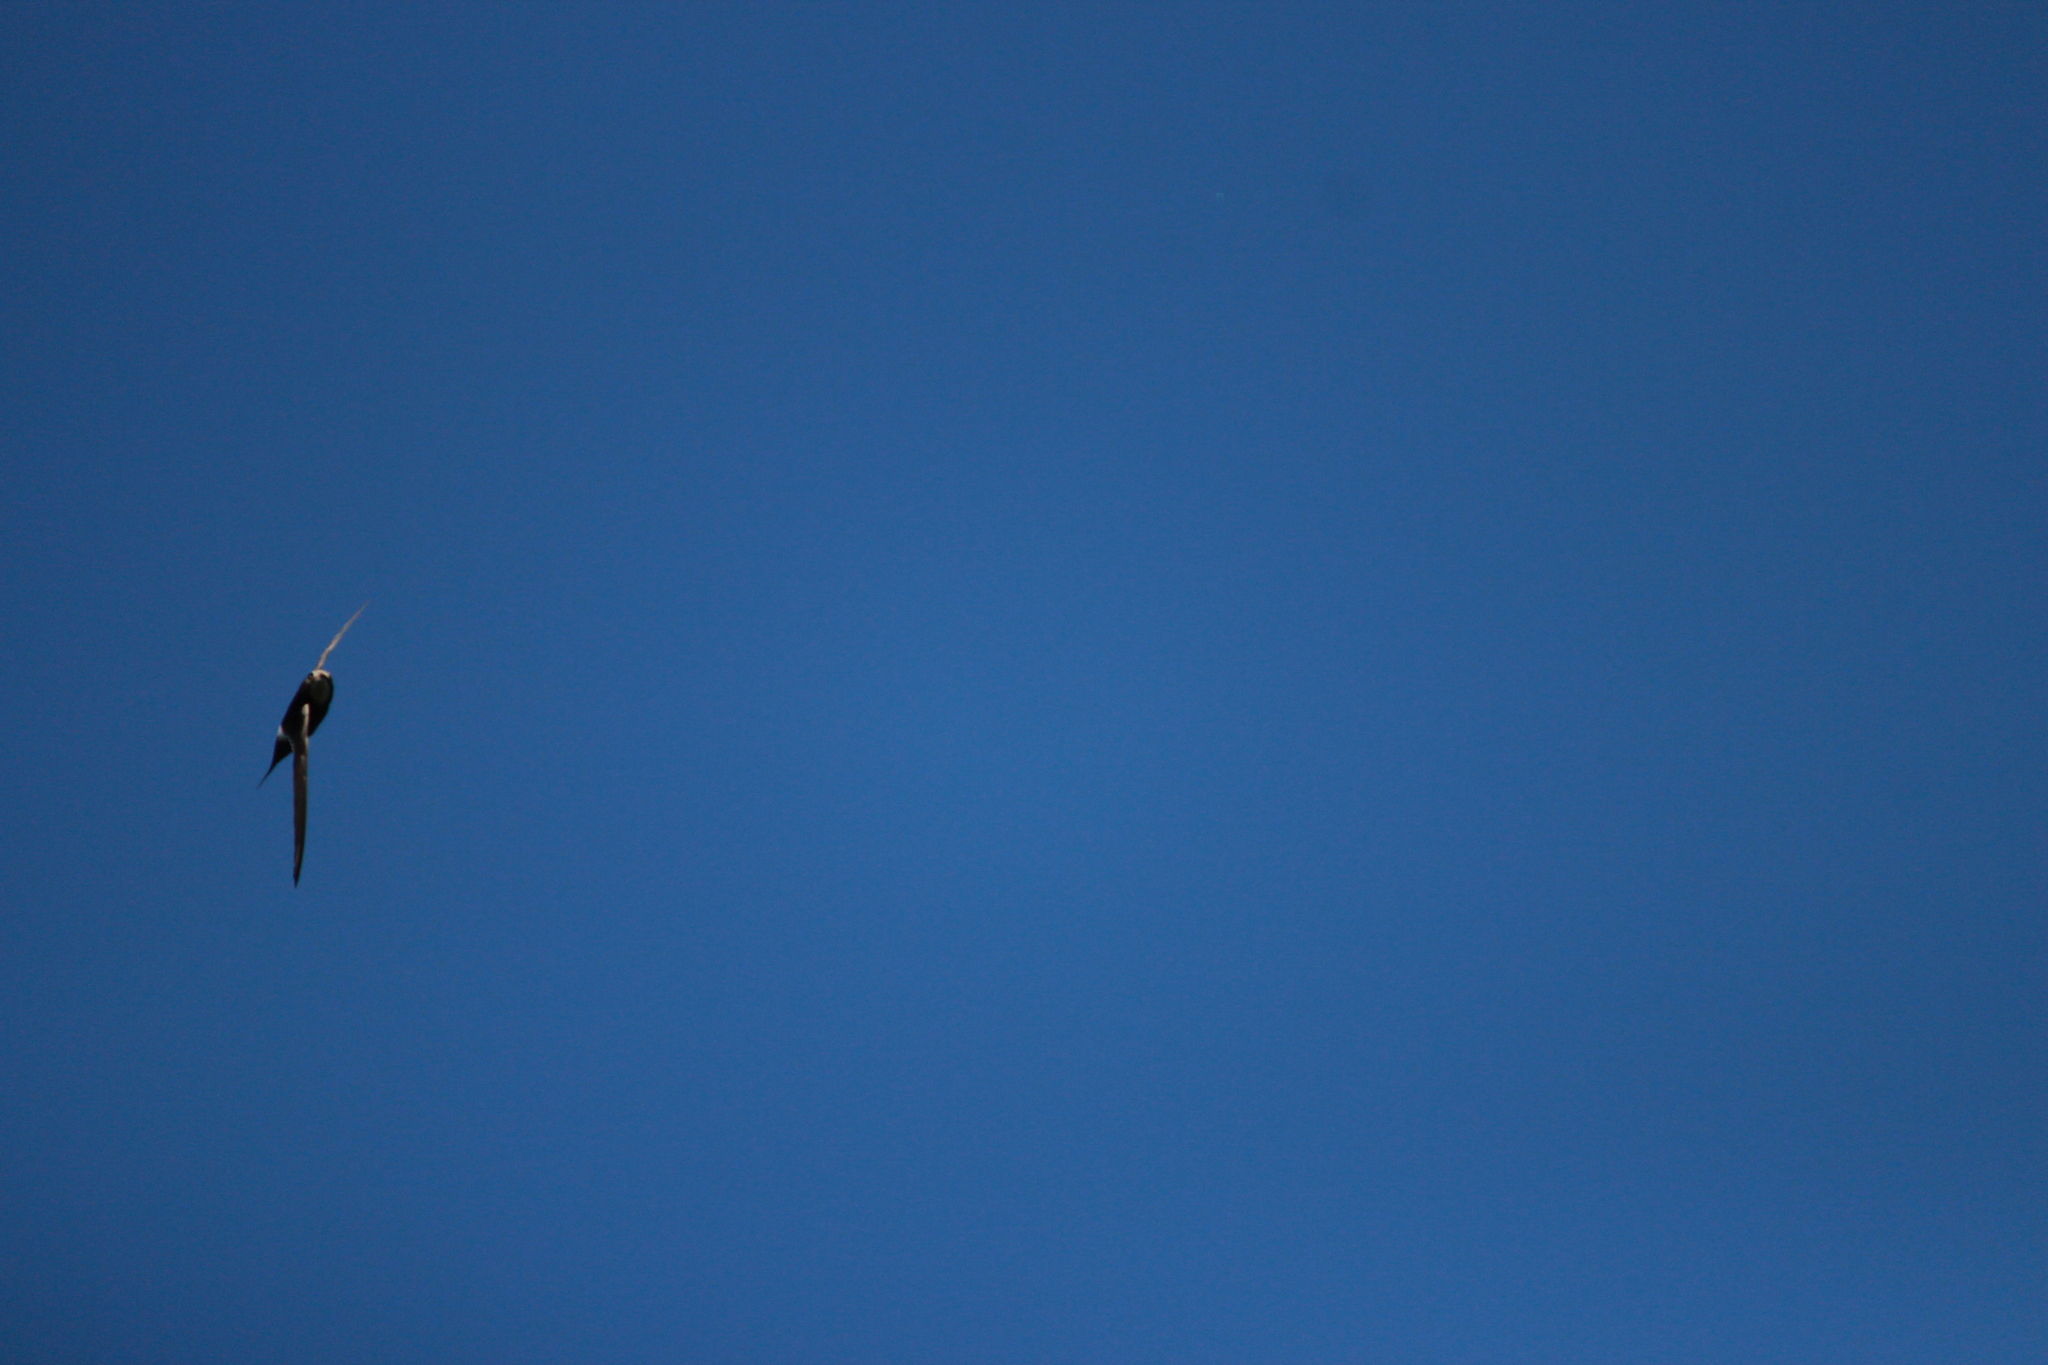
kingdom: Animalia
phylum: Chordata
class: Aves
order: Apodiformes
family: Apodidae
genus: Apus
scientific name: Apus caffer
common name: White-rumped swift
